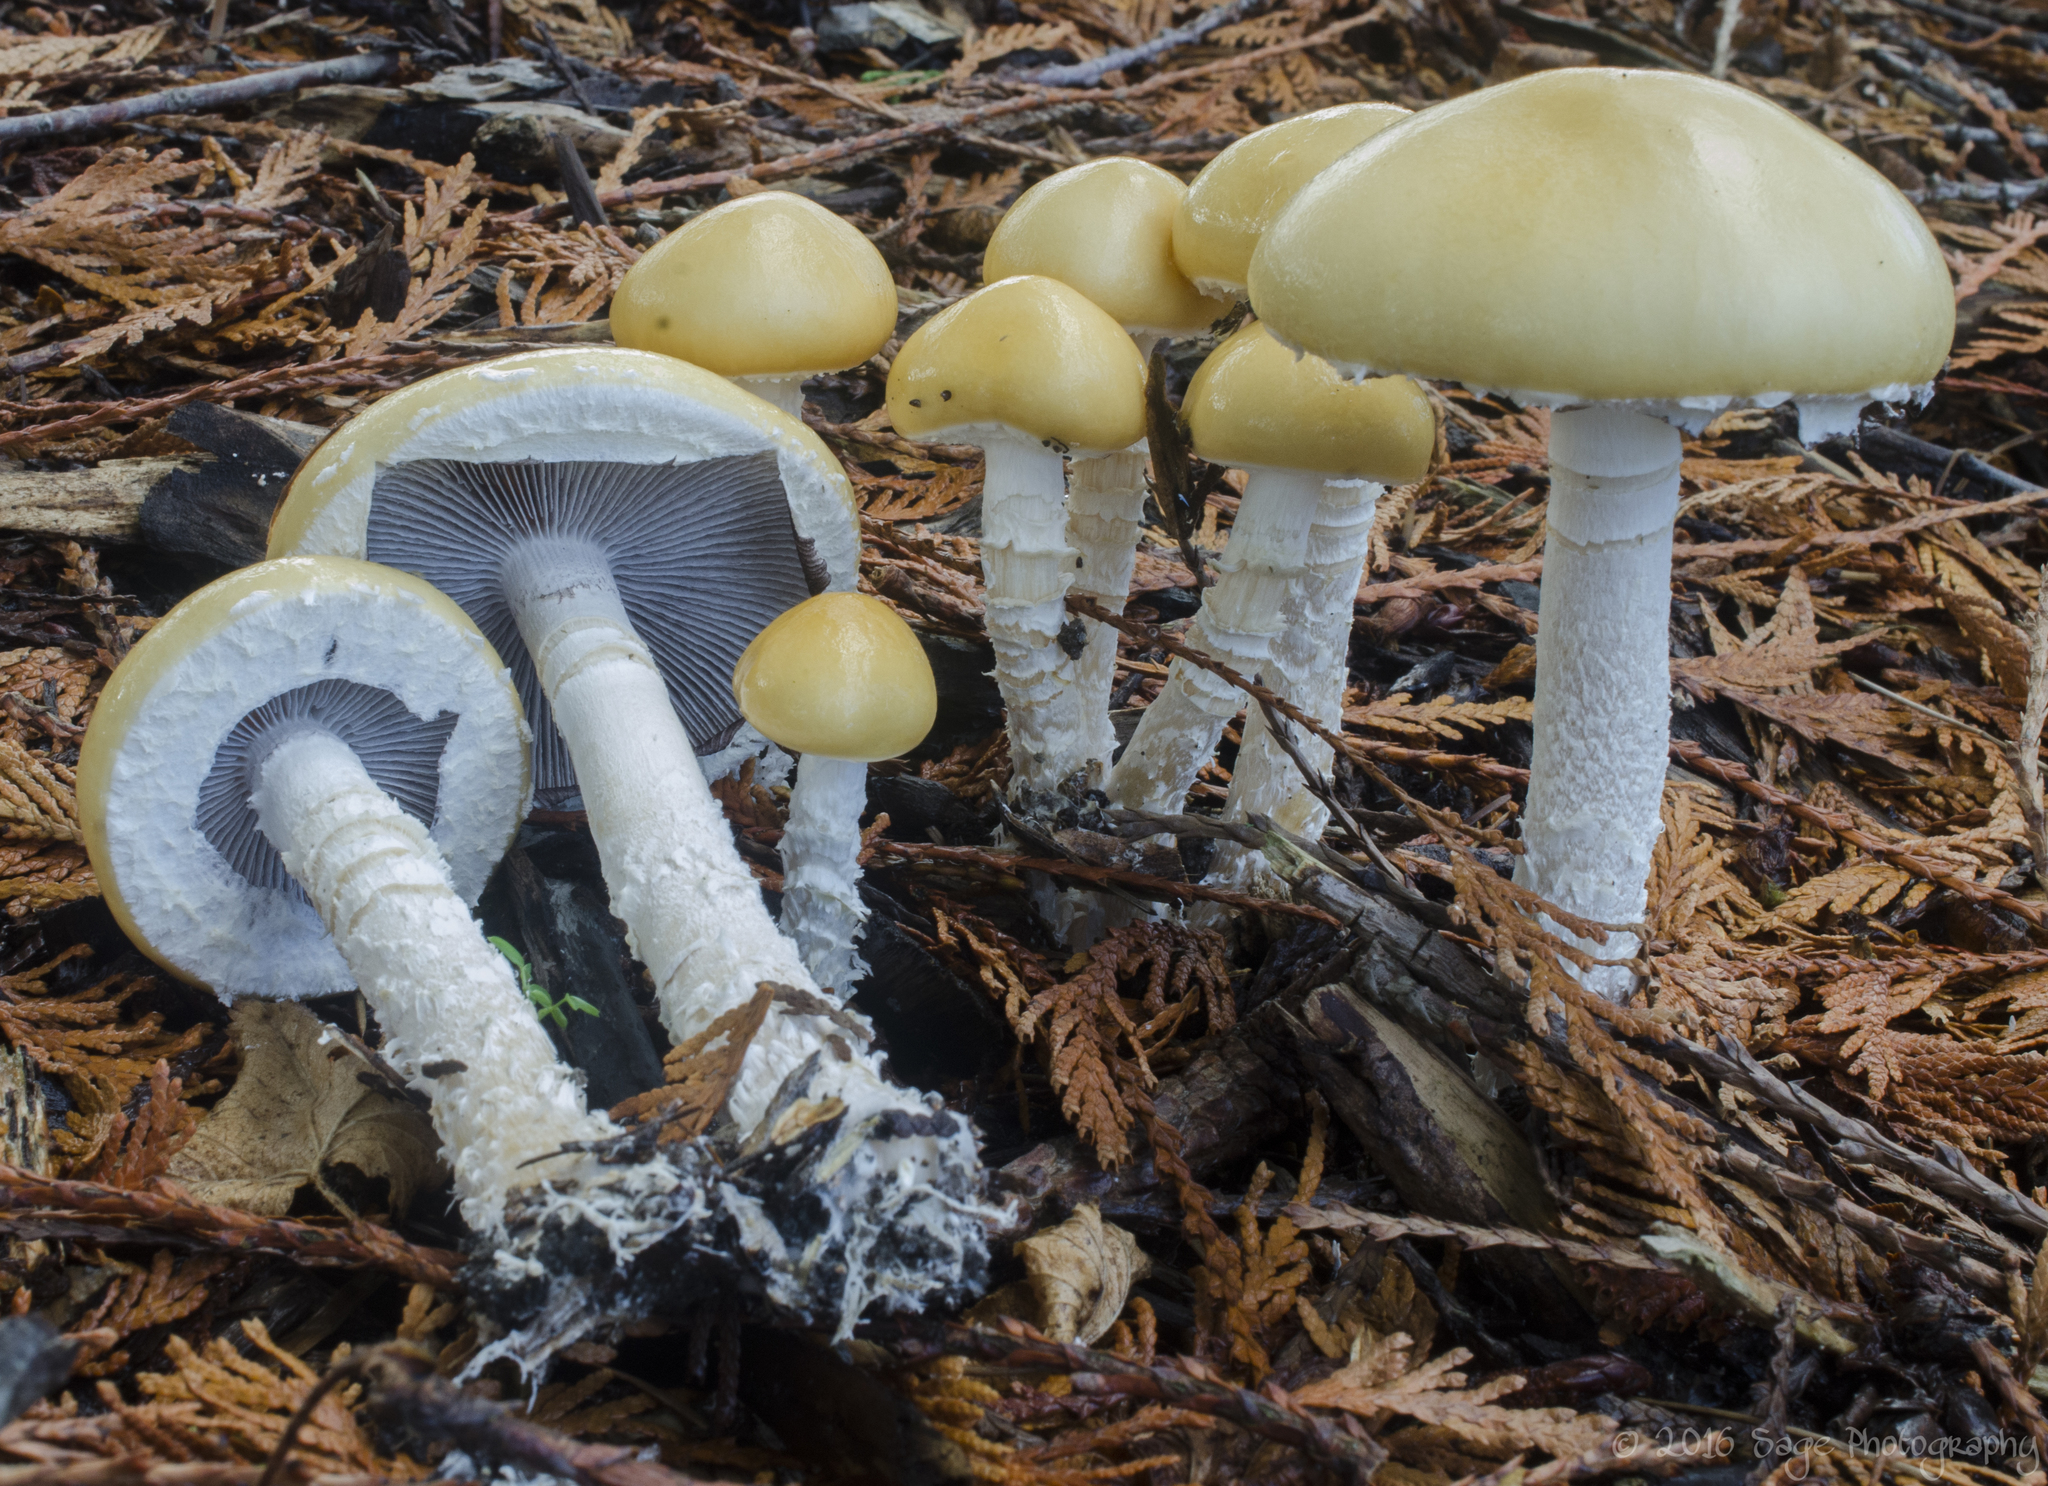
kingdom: Fungi
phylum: Basidiomycota
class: Agaricomycetes
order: Agaricales
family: Strophariaceae
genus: Stropharia
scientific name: Stropharia ambigua
